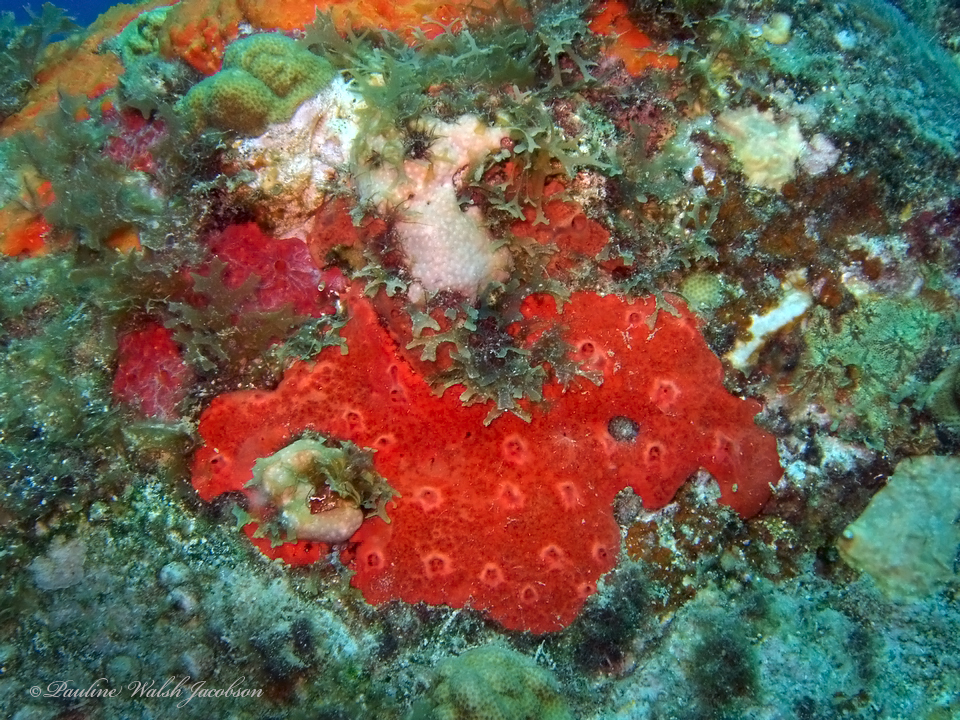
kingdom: Animalia
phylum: Porifera
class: Demospongiae
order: Clionaida
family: Spirastrellidae
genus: Spirastrella
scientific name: Spirastrella coccinea
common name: Encrusting sponge
